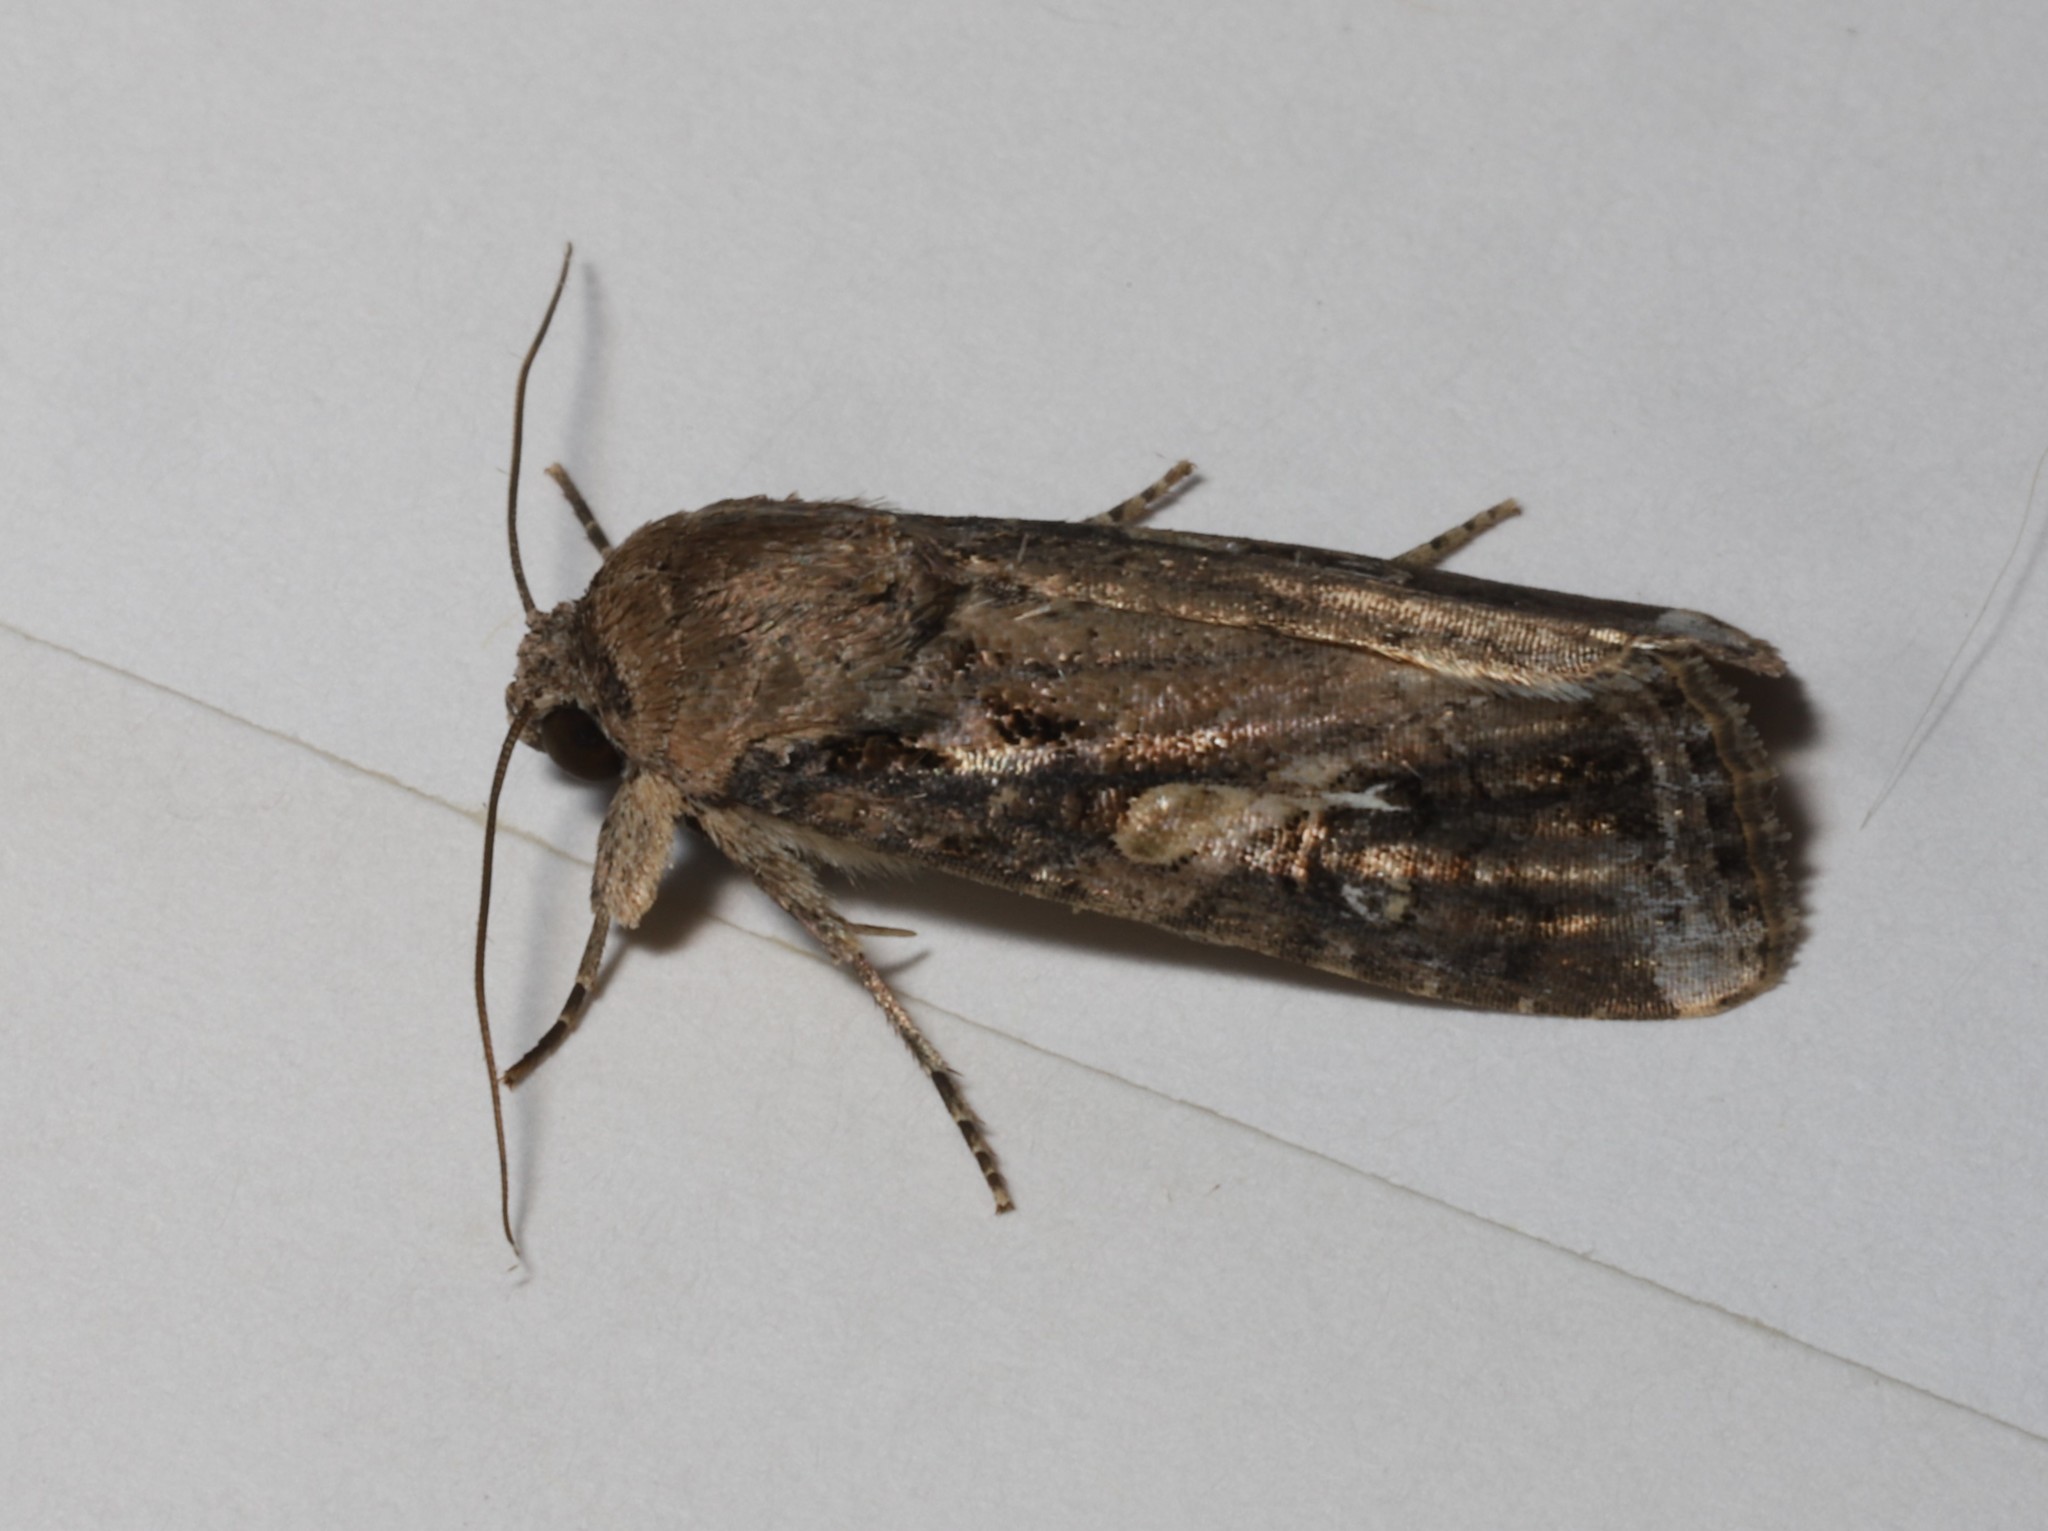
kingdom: Animalia
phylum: Arthropoda
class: Insecta
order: Lepidoptera
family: Noctuidae
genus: Spodoptera
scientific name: Spodoptera frugiperda
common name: Fall armyworm
